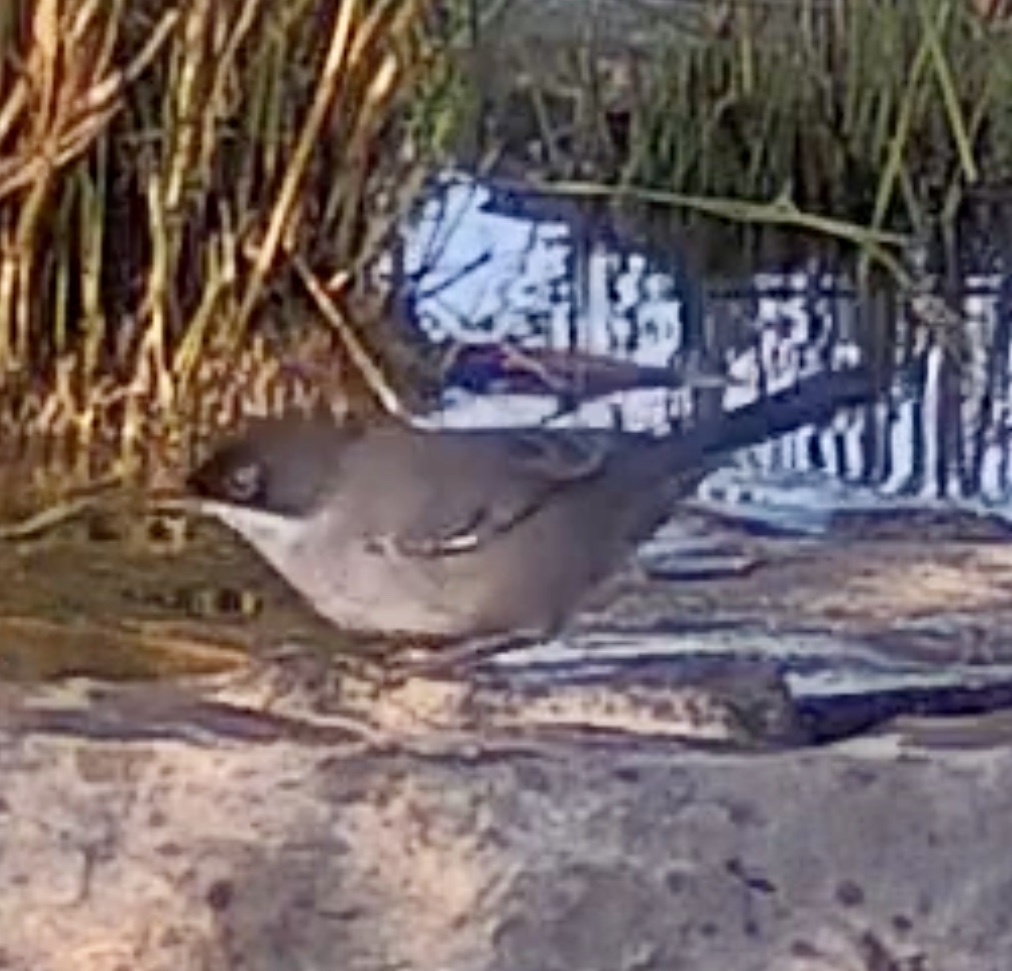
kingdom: Animalia
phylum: Chordata
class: Aves
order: Passeriformes
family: Sylviidae
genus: Curruca
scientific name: Curruca melanocephala
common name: Sardinian warbler
